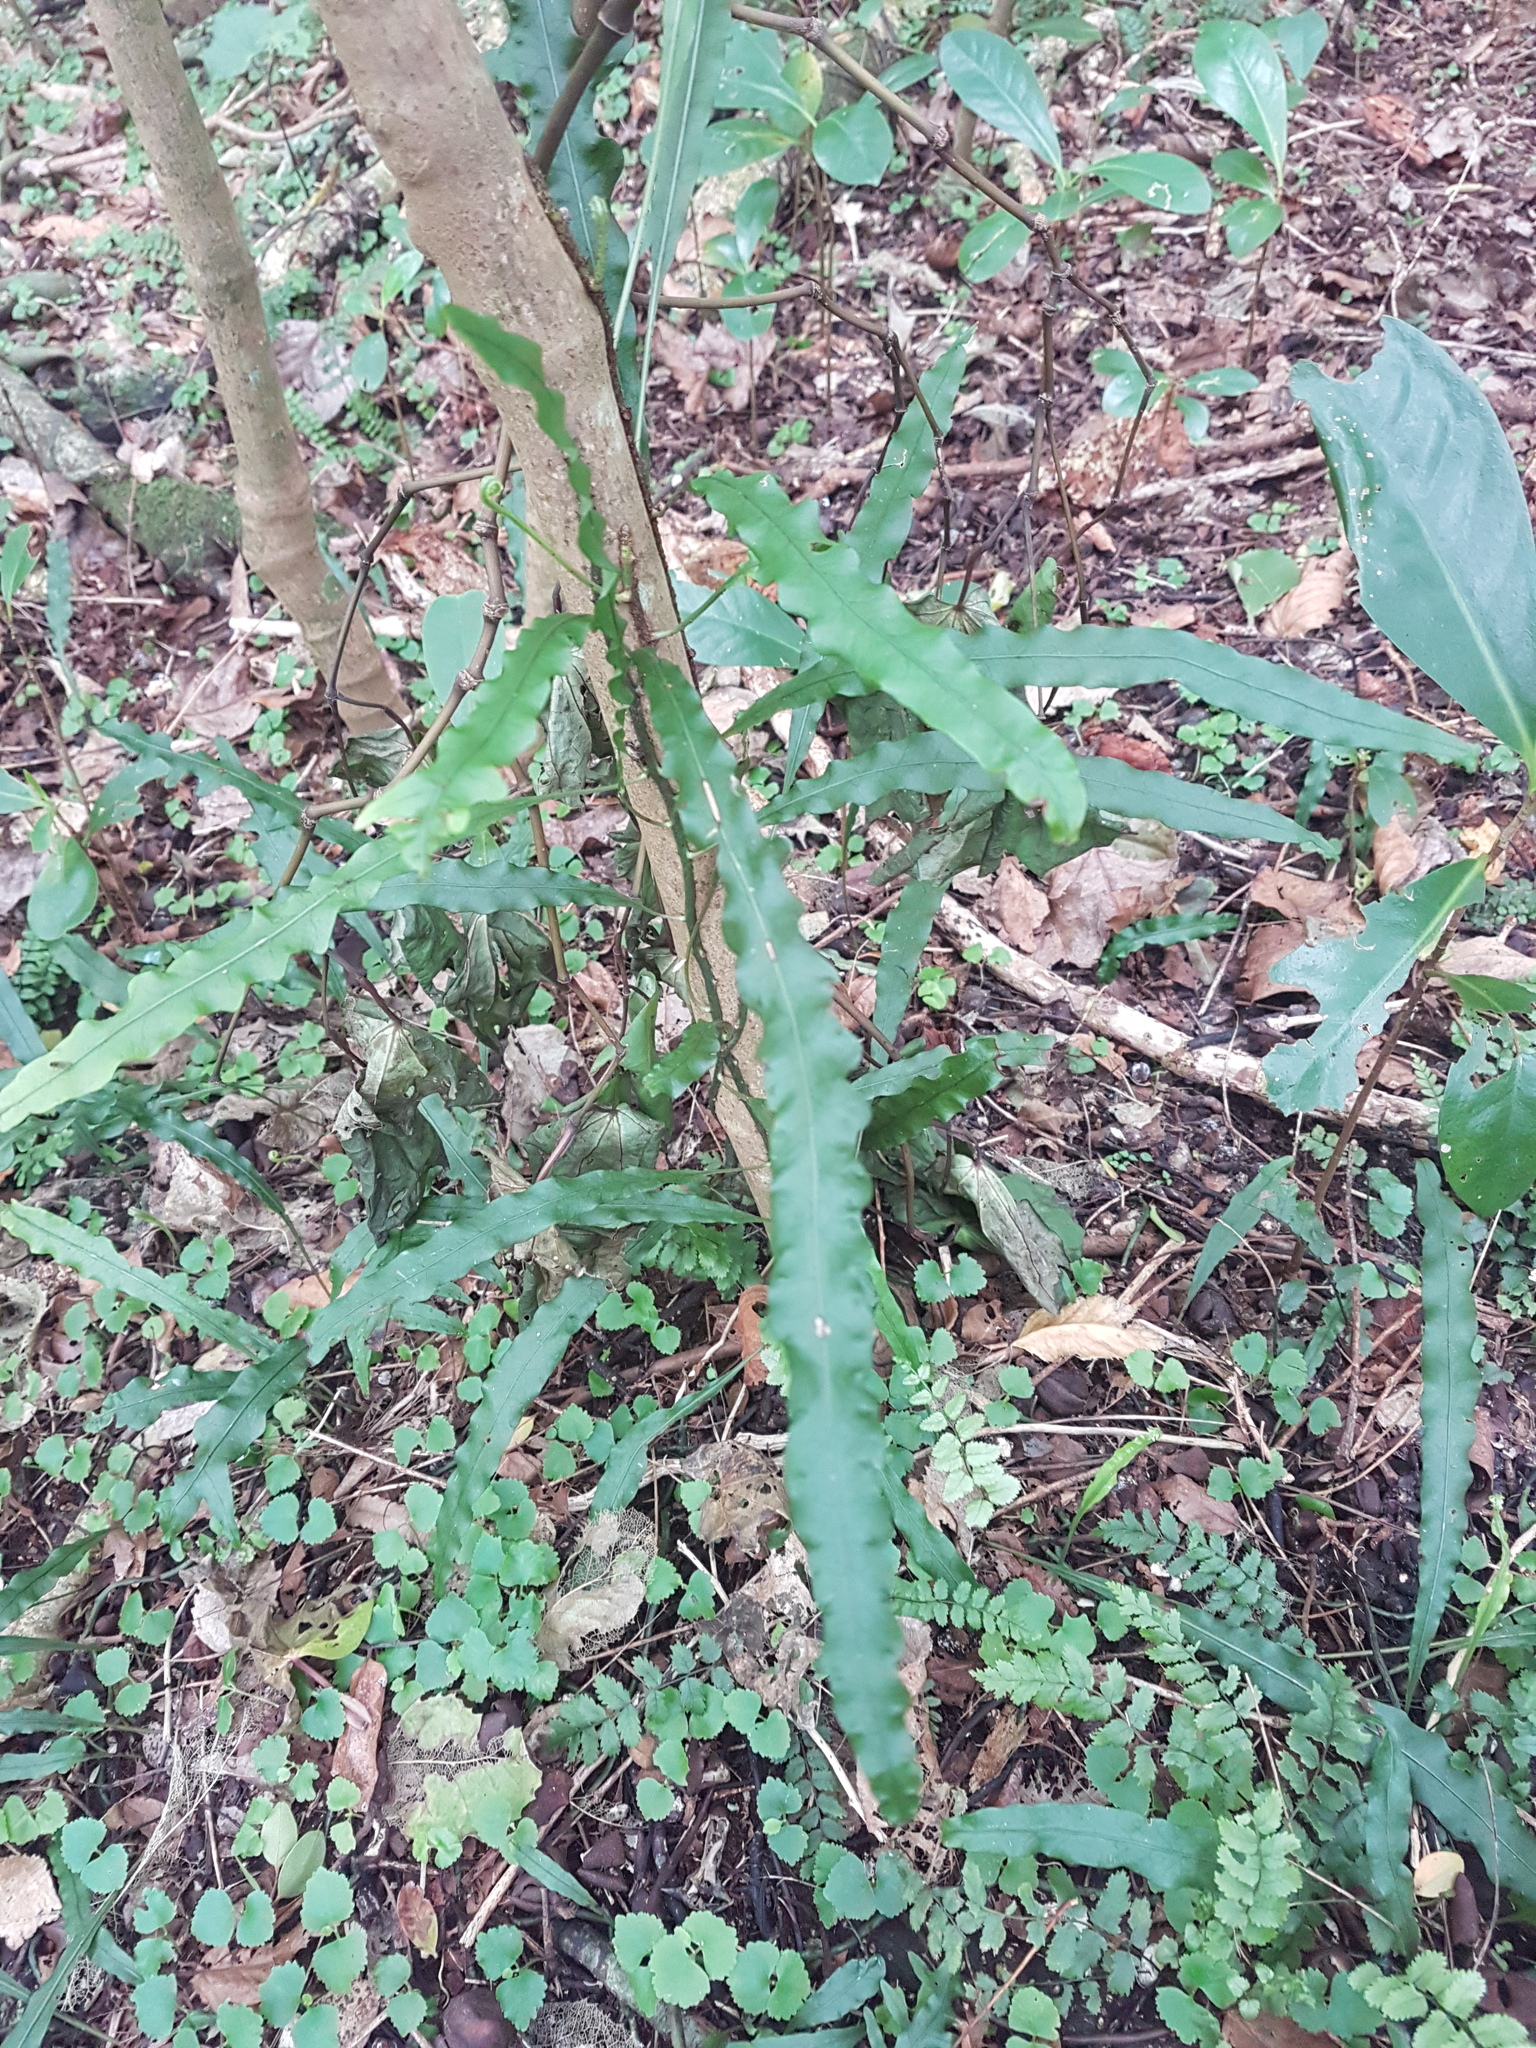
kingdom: Plantae
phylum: Tracheophyta
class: Polypodiopsida
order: Polypodiales
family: Polypodiaceae
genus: Lecanopteris
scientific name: Lecanopteris scandens
